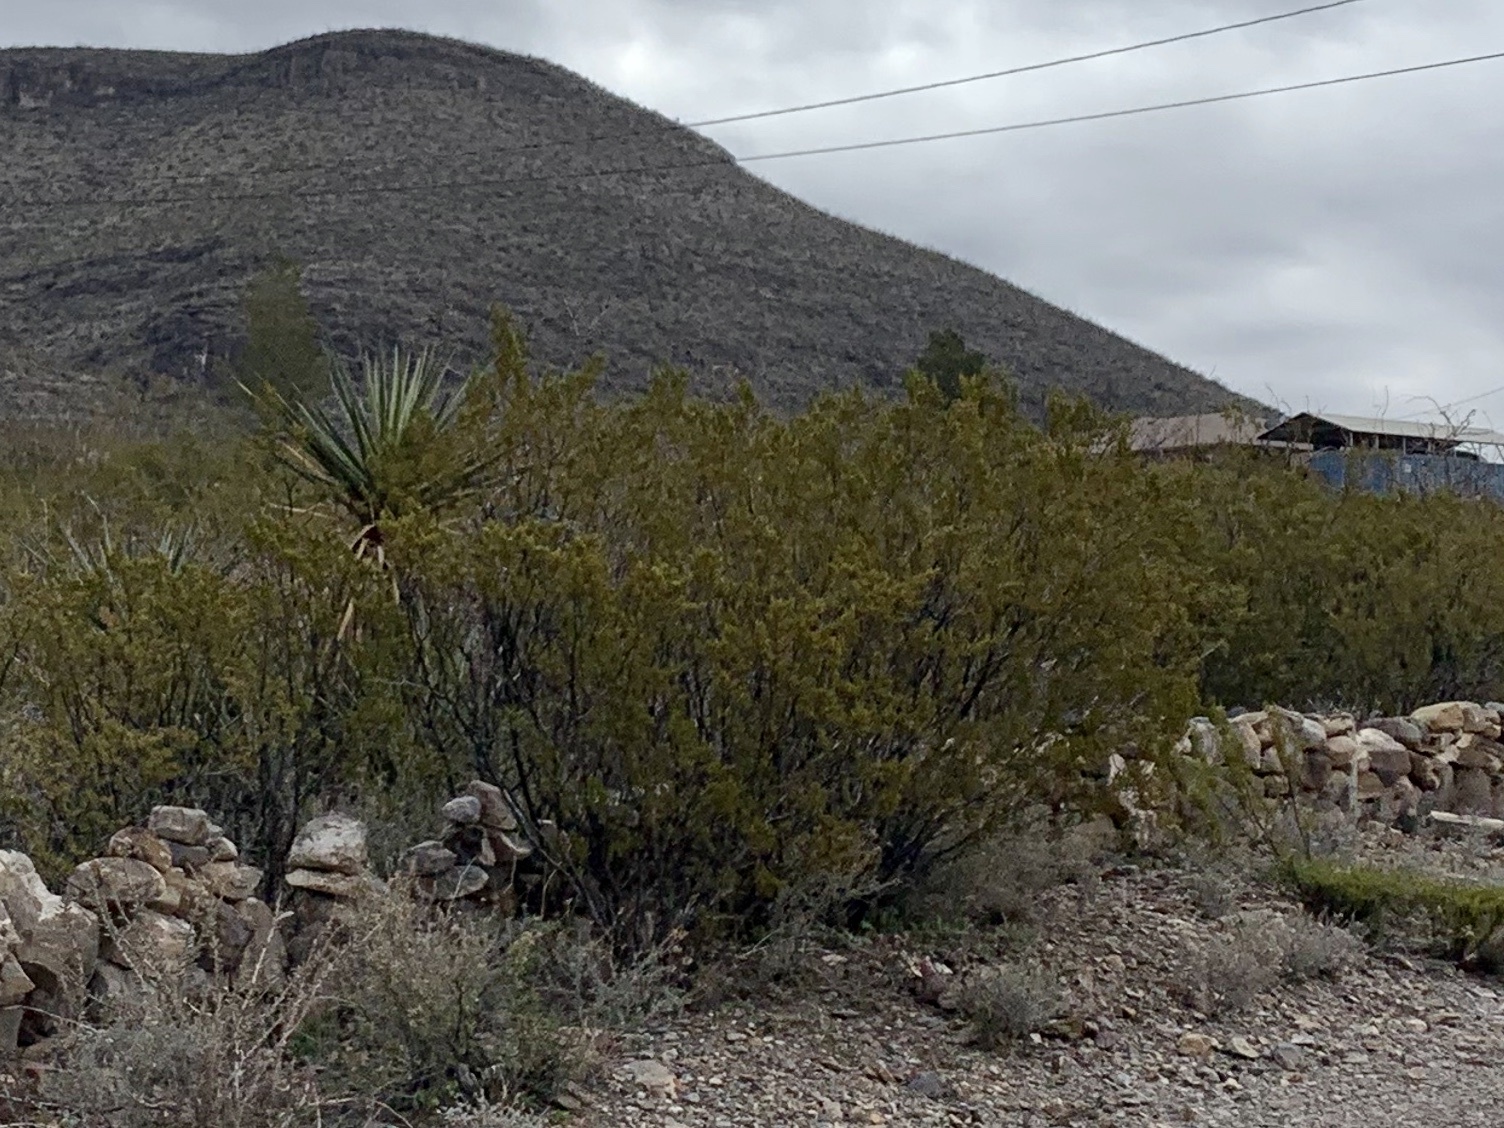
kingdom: Plantae
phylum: Tracheophyta
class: Magnoliopsida
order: Zygophyllales
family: Zygophyllaceae
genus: Larrea
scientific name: Larrea tridentata
